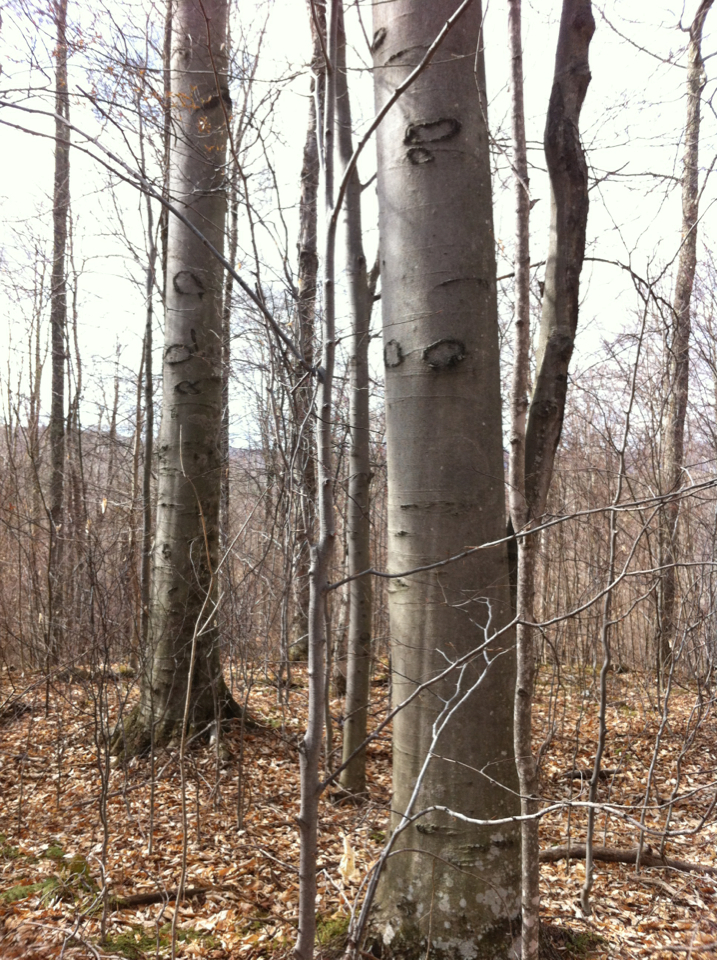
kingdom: Plantae
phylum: Tracheophyta
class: Magnoliopsida
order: Fagales
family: Fagaceae
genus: Fagus
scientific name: Fagus grandifolia
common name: American beech
